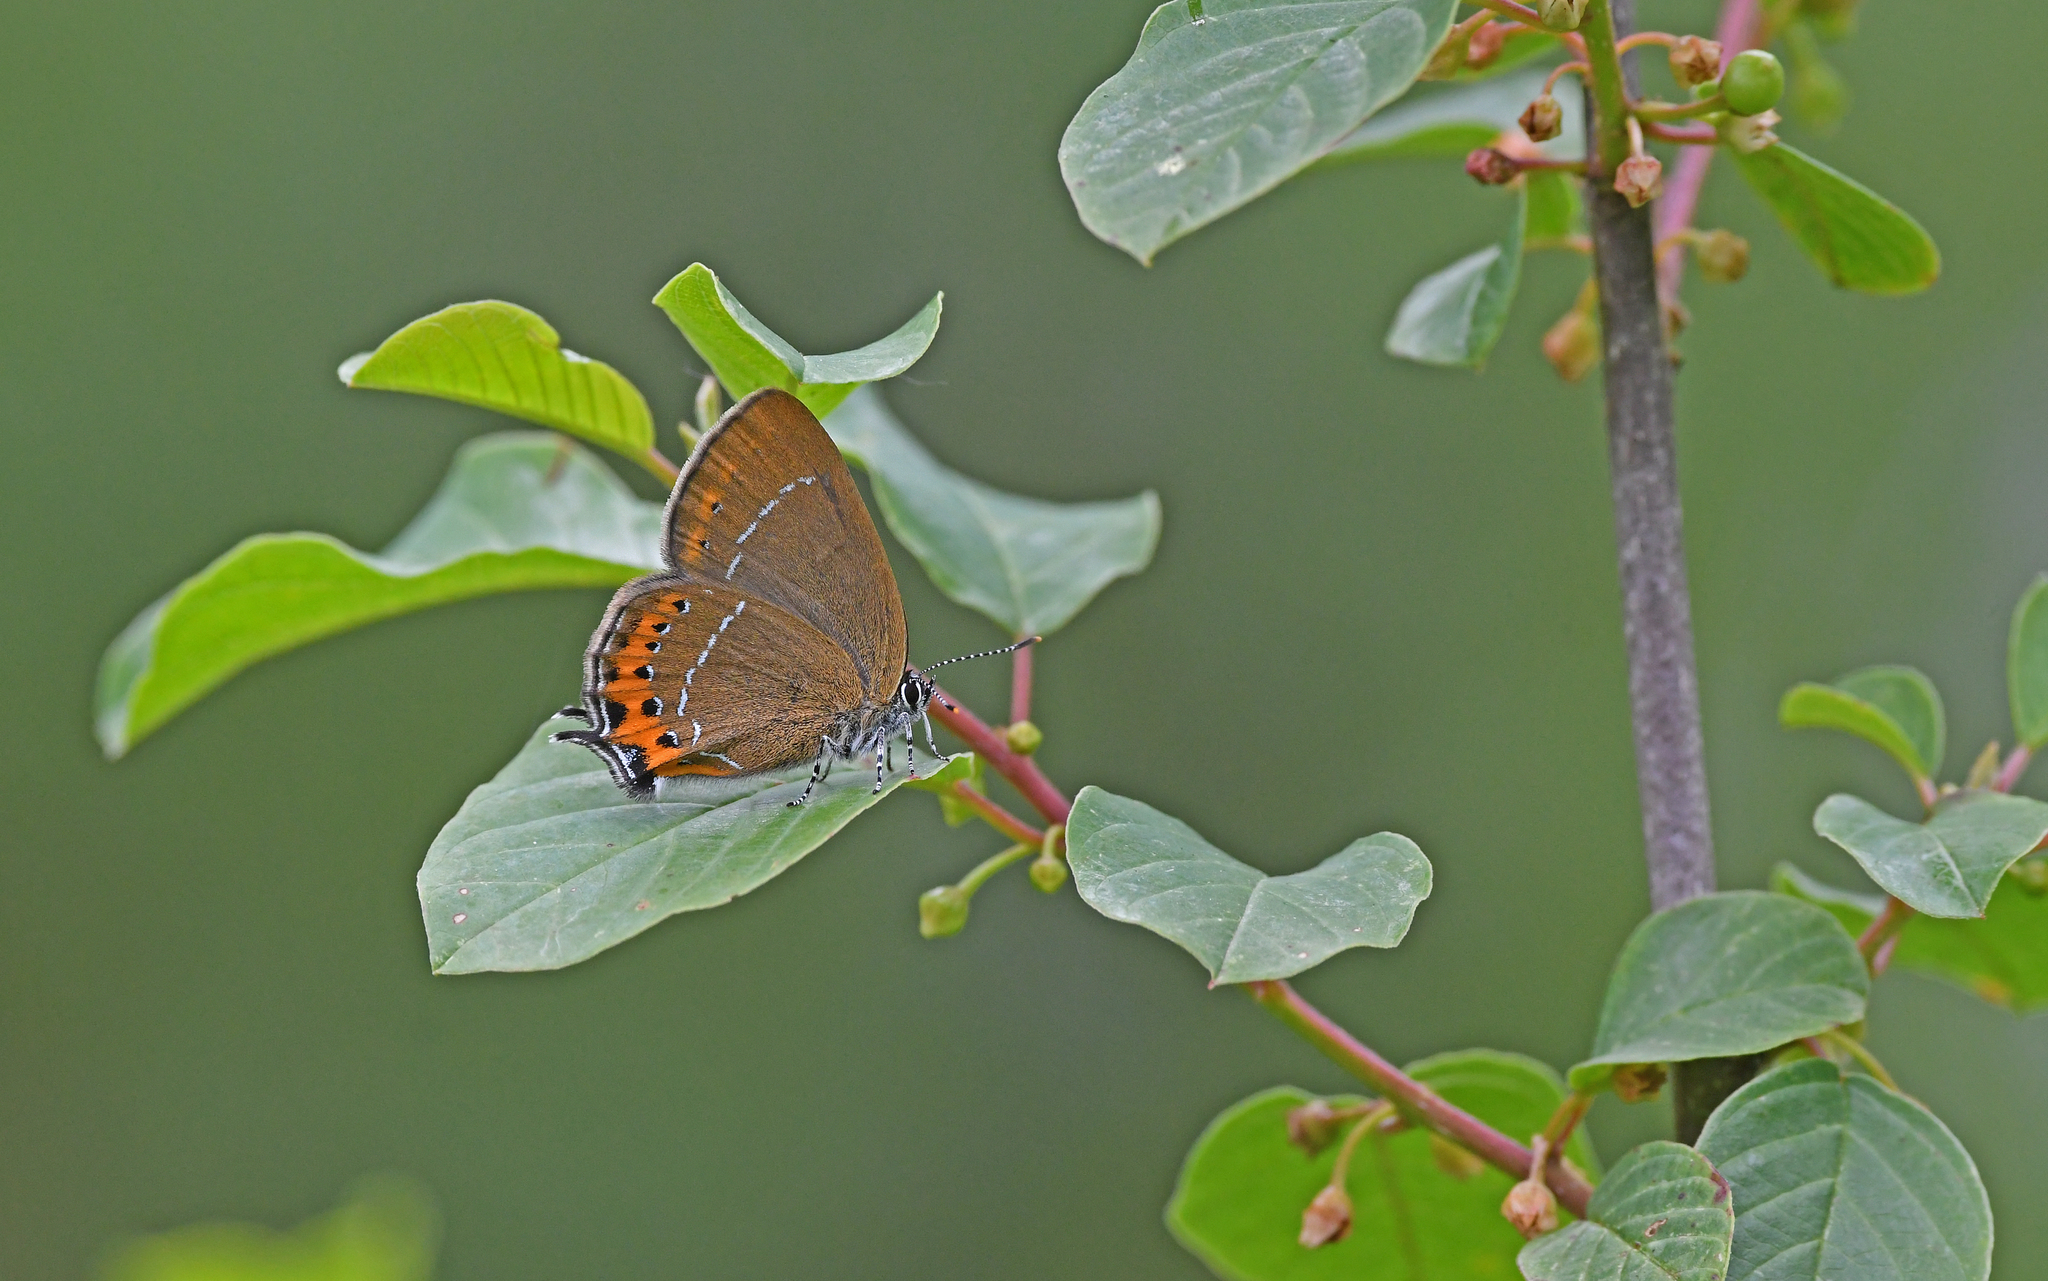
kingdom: Animalia
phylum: Arthropoda
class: Insecta
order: Lepidoptera
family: Lycaenidae
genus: Fixsenia
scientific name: Fixsenia pruni
